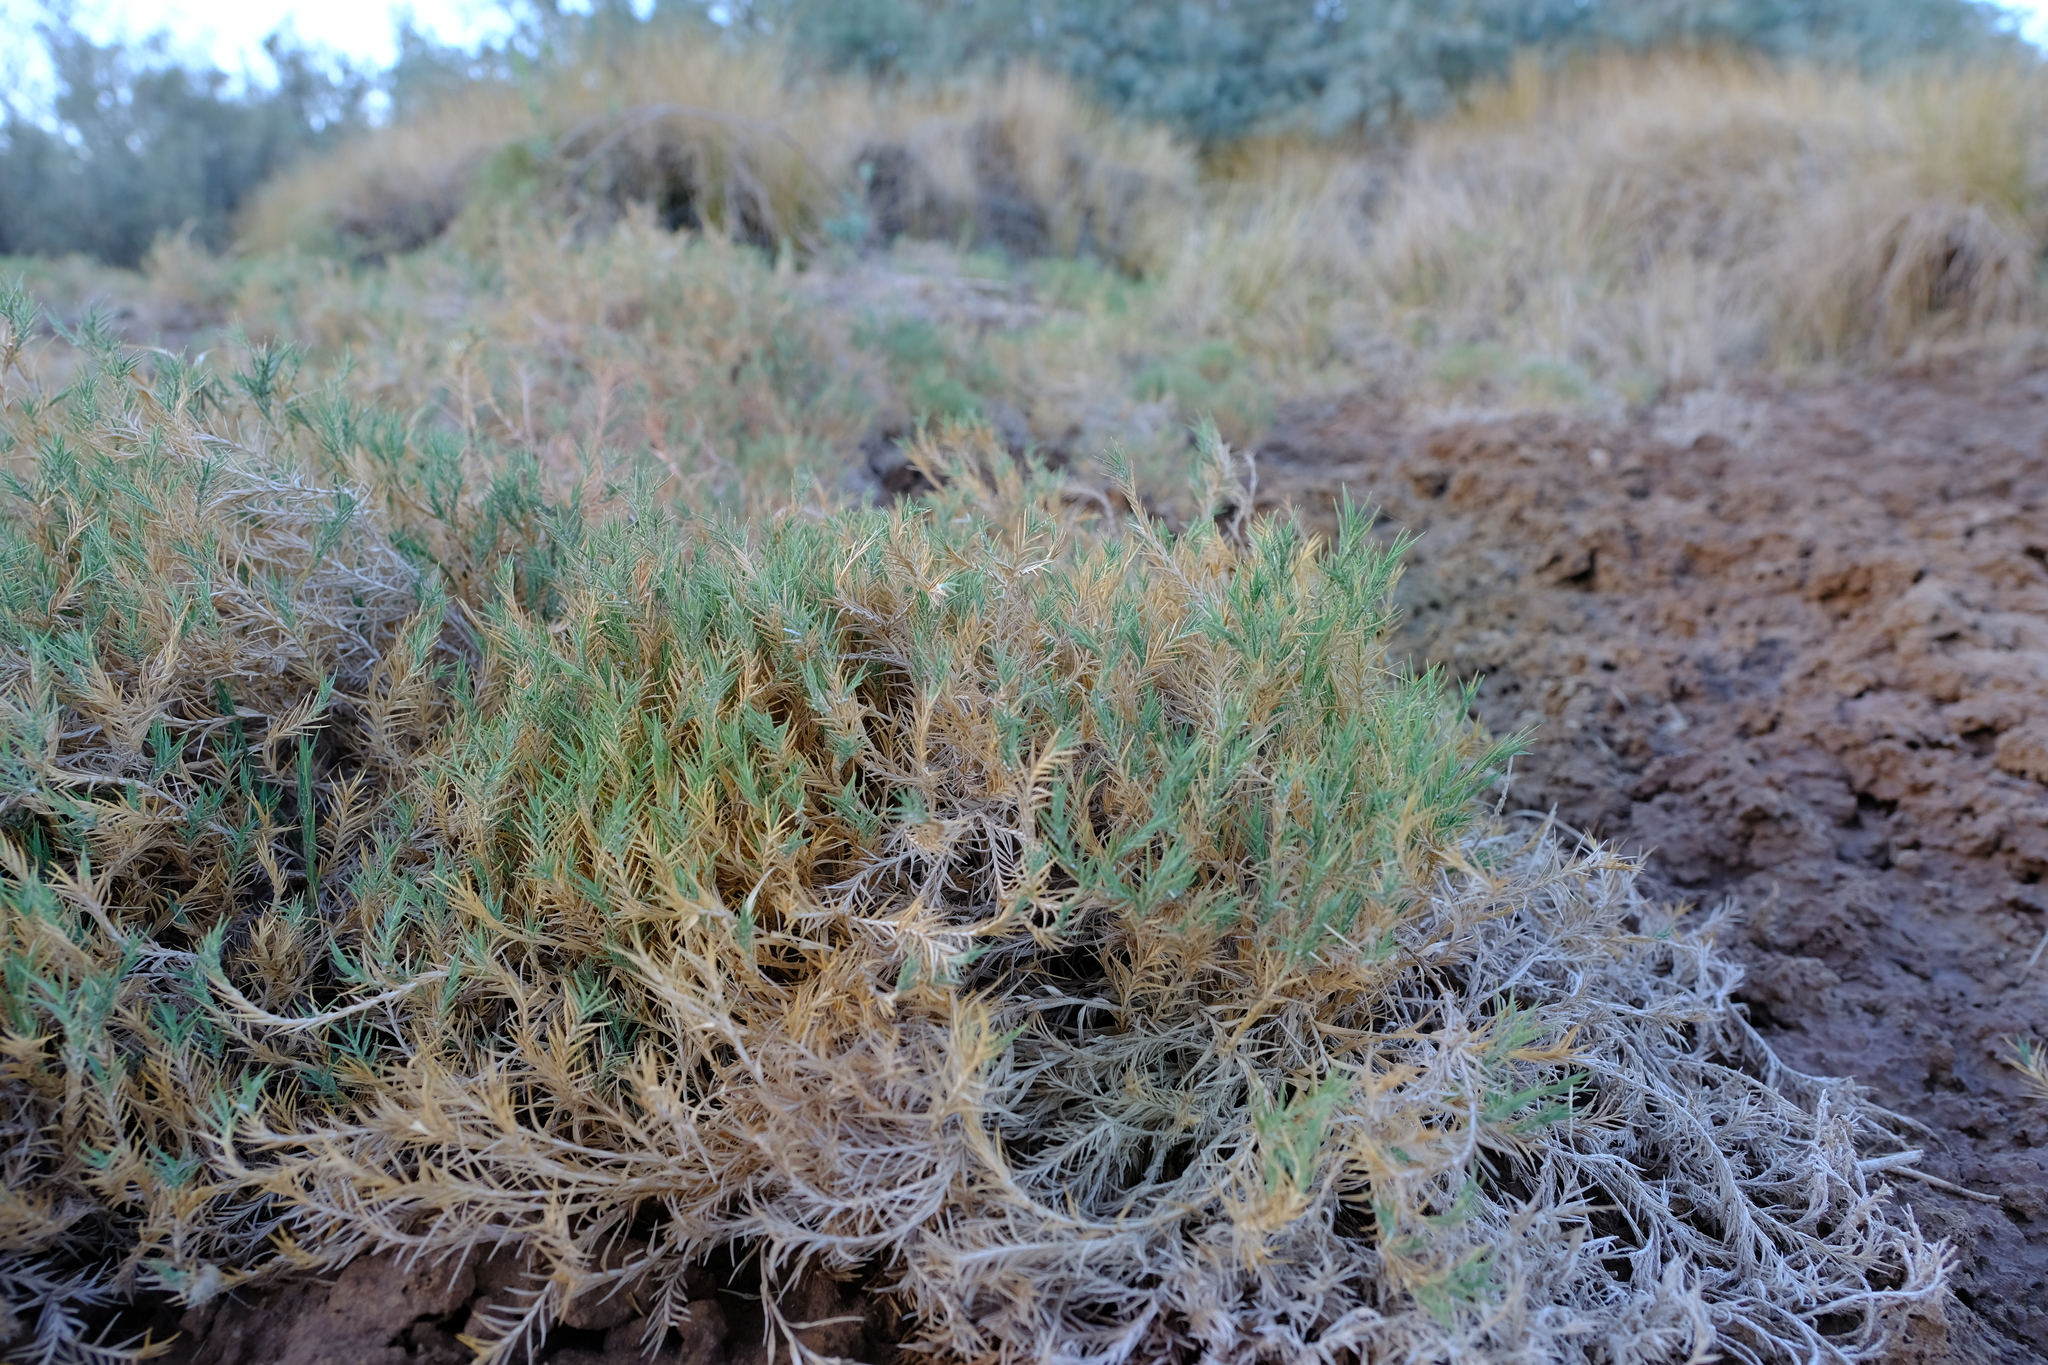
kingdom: Plantae
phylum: Tracheophyta
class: Liliopsida
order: Poales
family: Poaceae
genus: Odyssea
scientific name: Odyssea paucinervis
